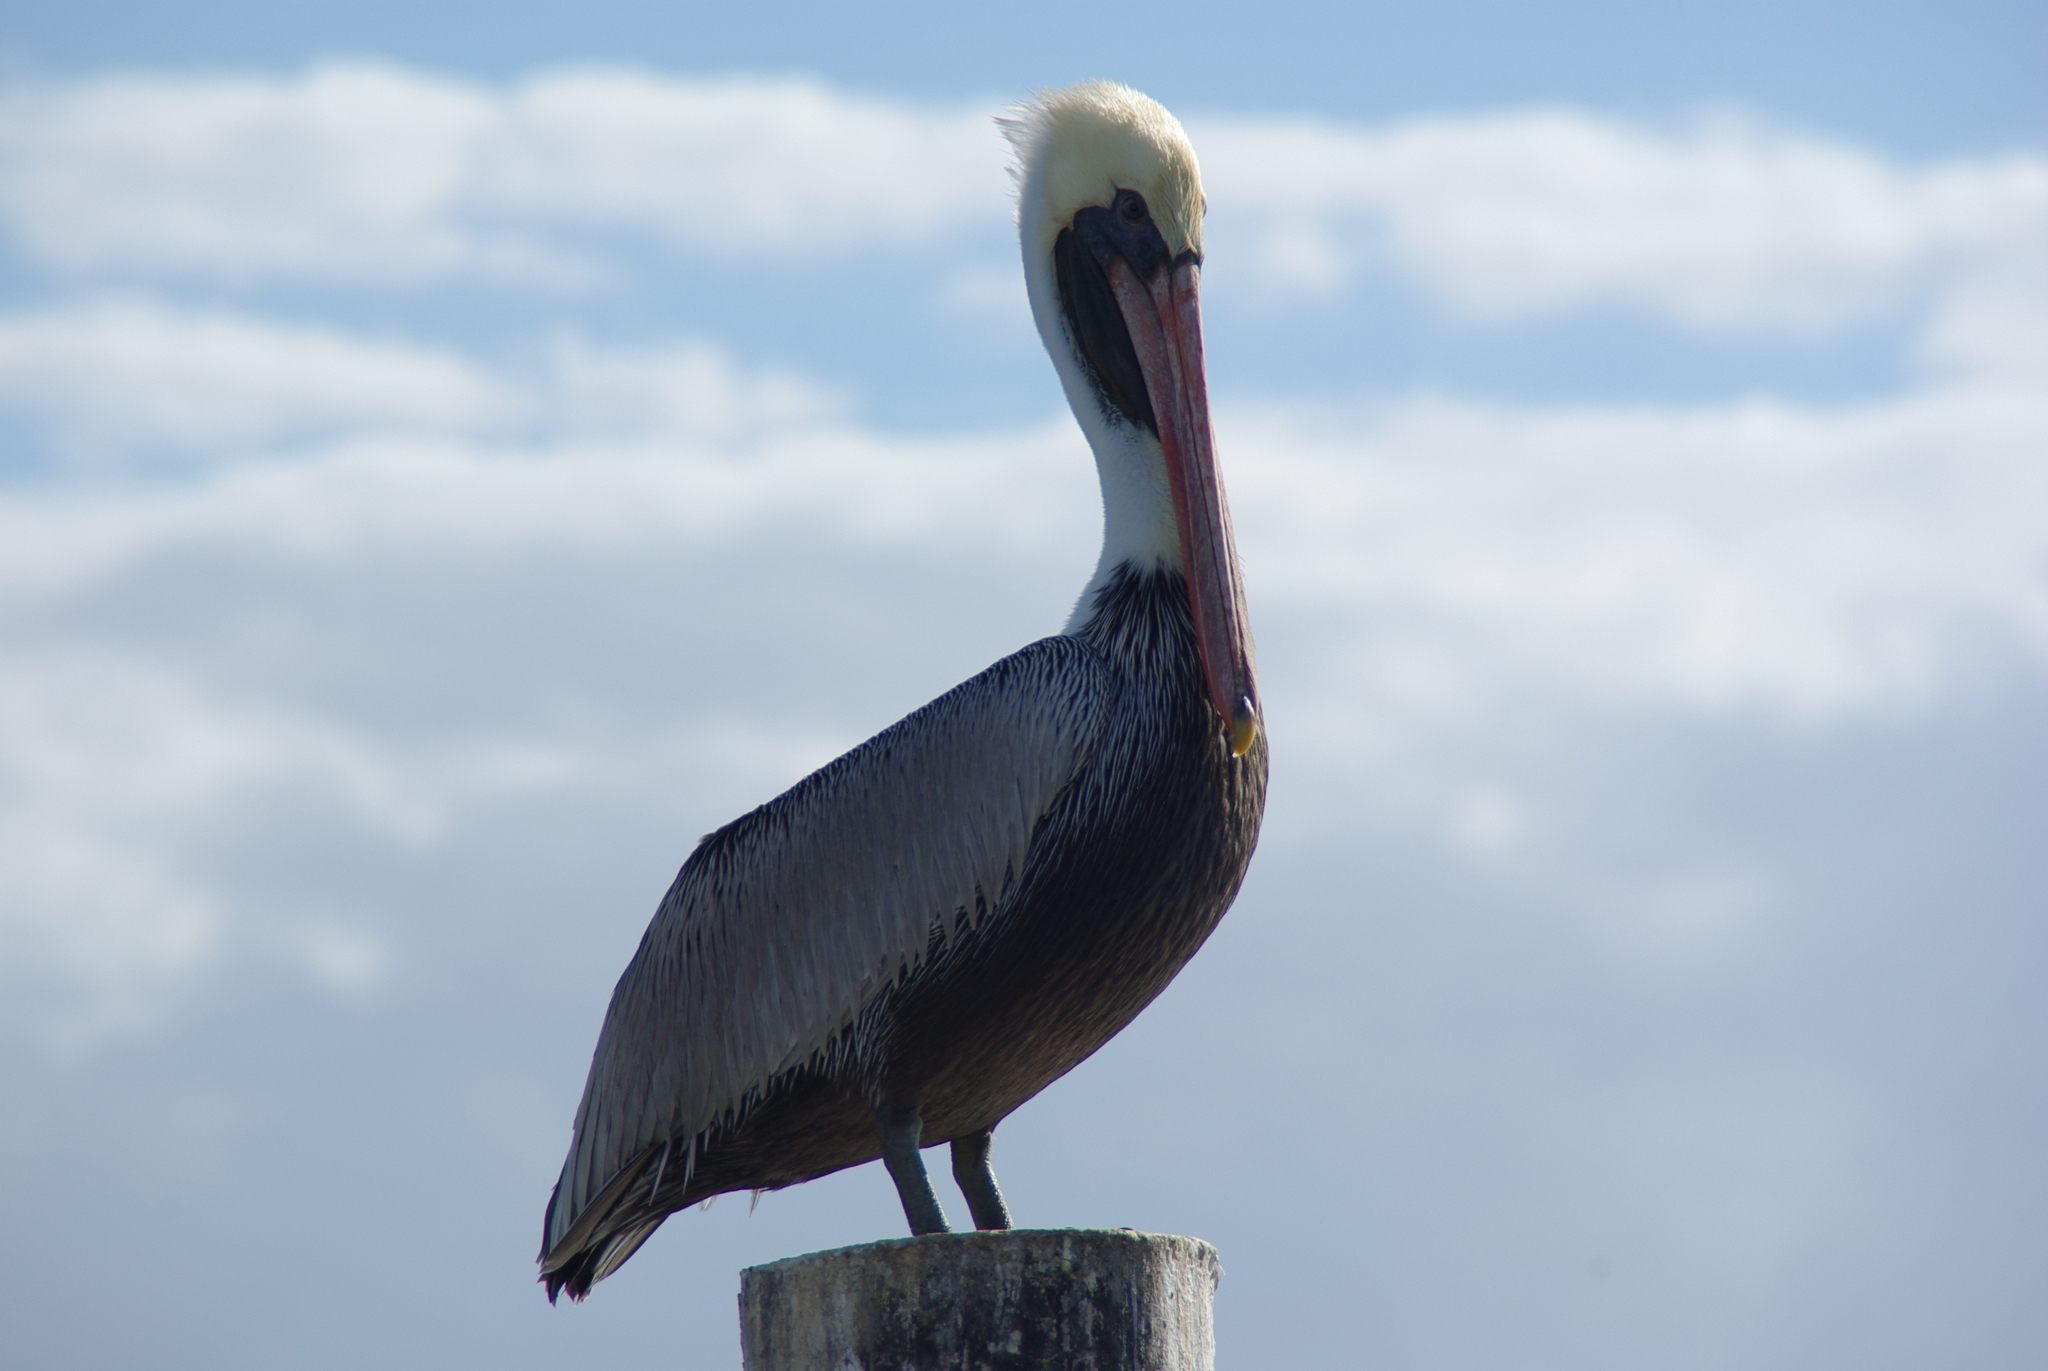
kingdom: Animalia
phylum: Chordata
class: Aves
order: Pelecaniformes
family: Pelecanidae
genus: Pelecanus
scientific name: Pelecanus occidentalis
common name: Brown pelican
